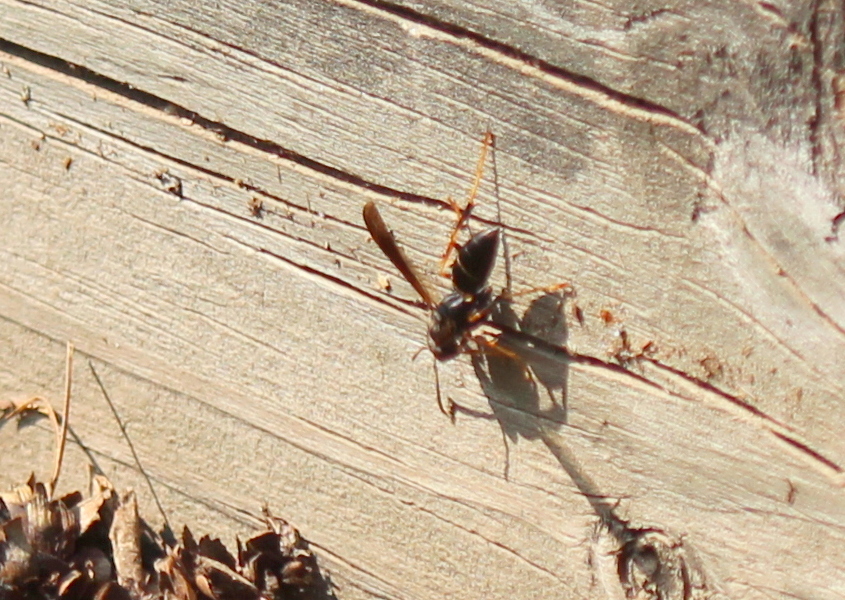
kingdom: Animalia
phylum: Arthropoda
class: Insecta
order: Hymenoptera
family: Eumenidae
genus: Polistes
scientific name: Polistes fuscatus
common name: Dark paper wasp
